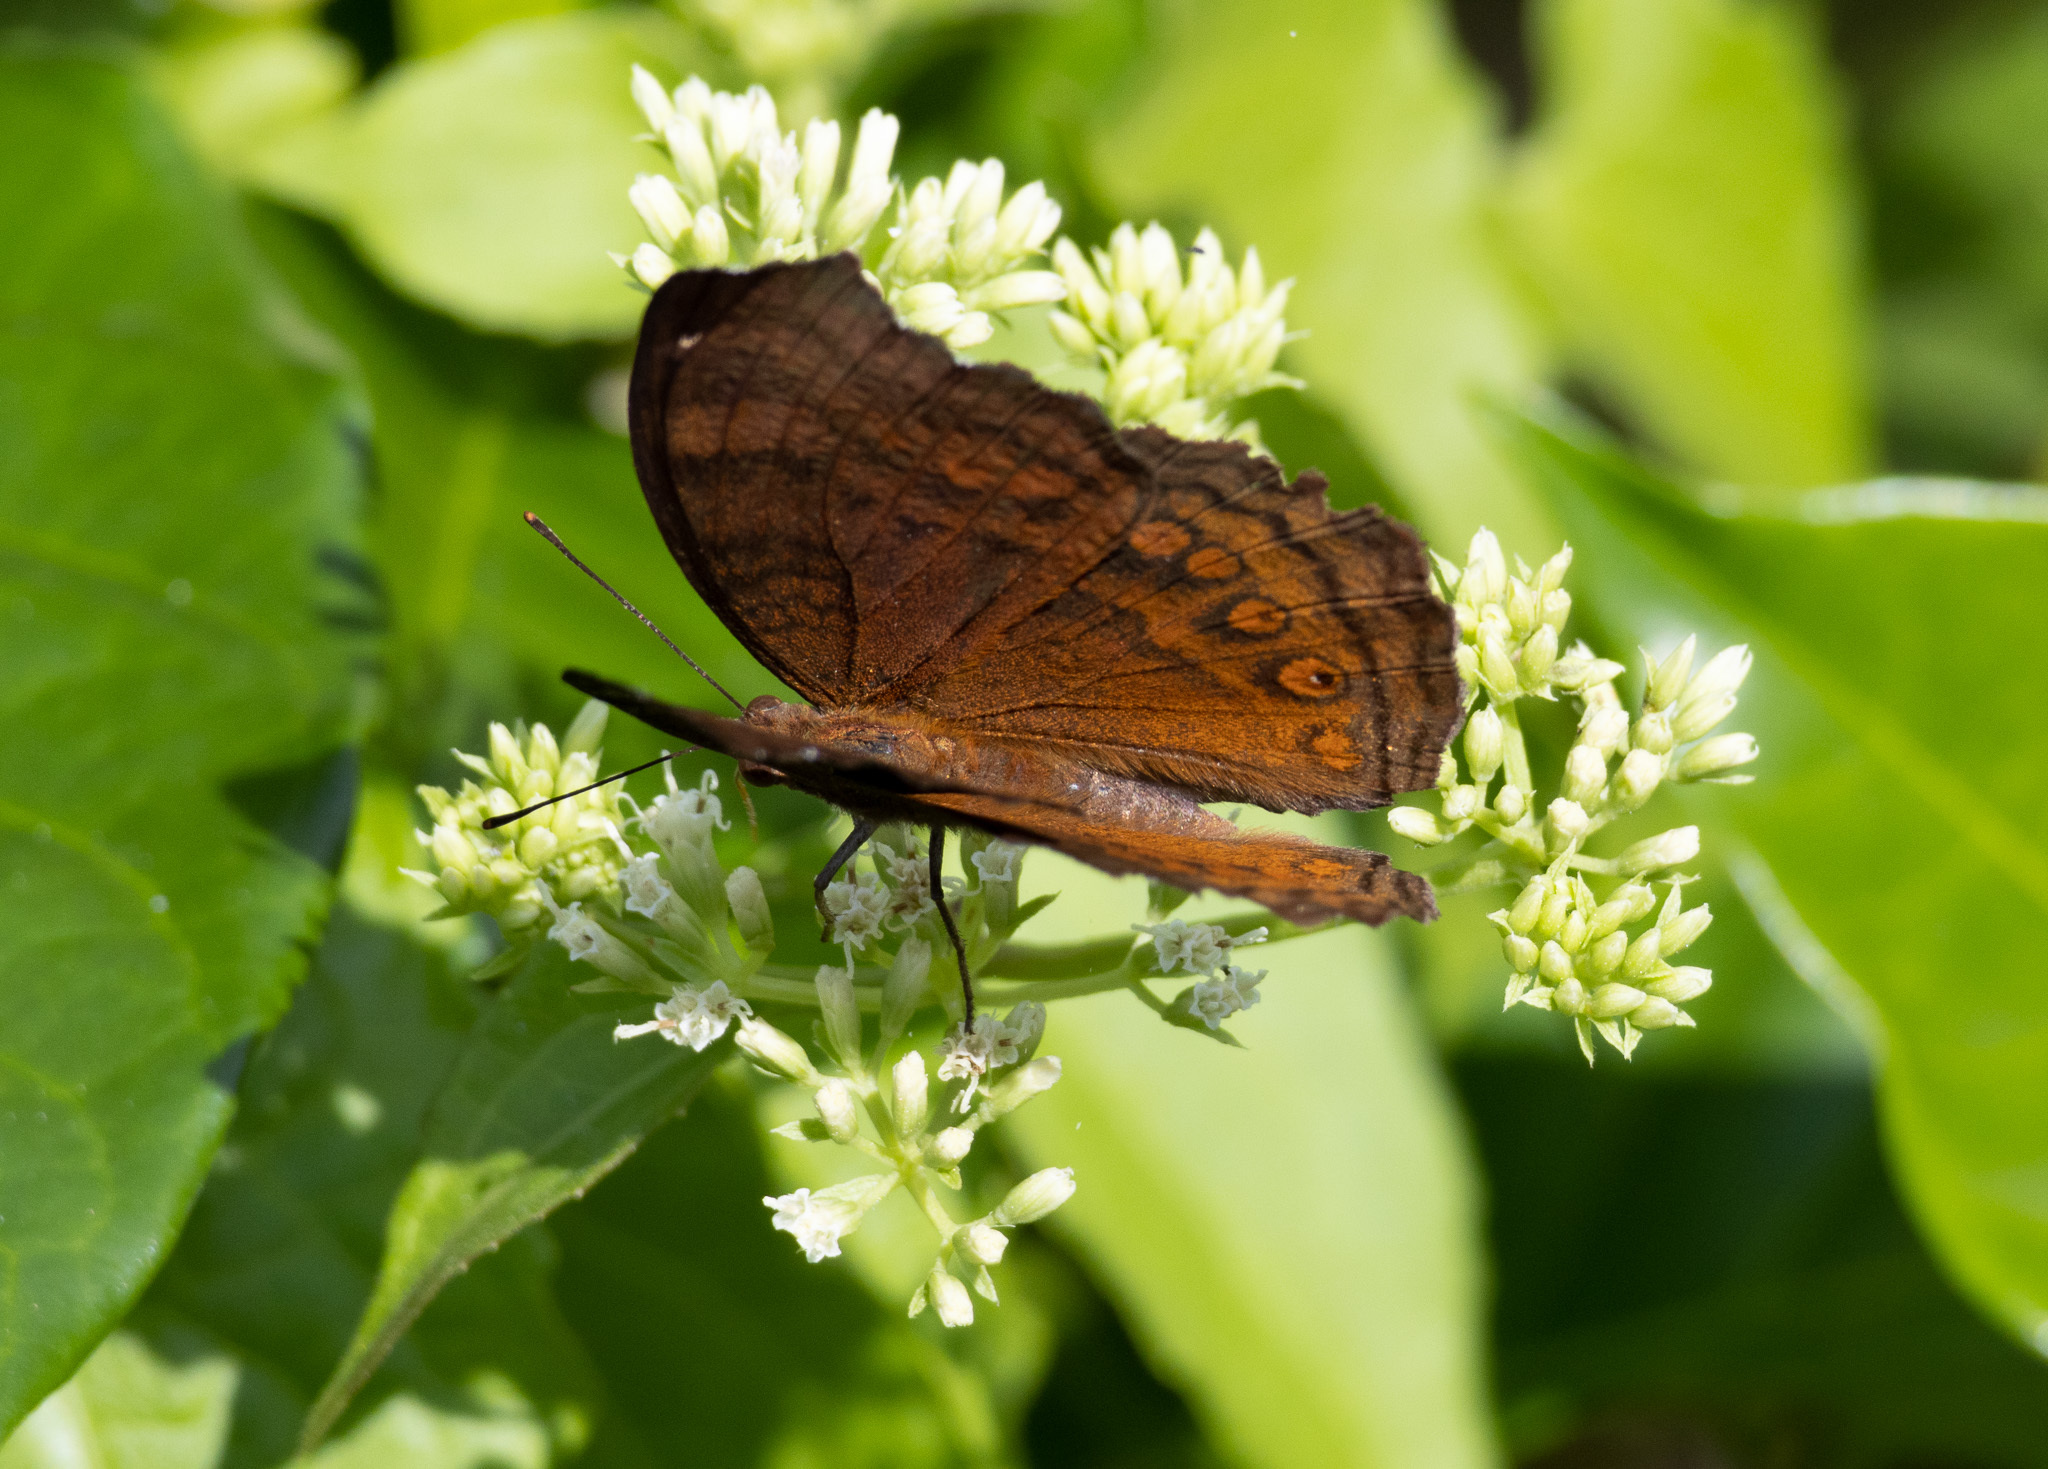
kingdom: Animalia
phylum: Arthropoda
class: Insecta
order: Lepidoptera
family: Nymphalidae
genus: Junonia
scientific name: Junonia hedonia
